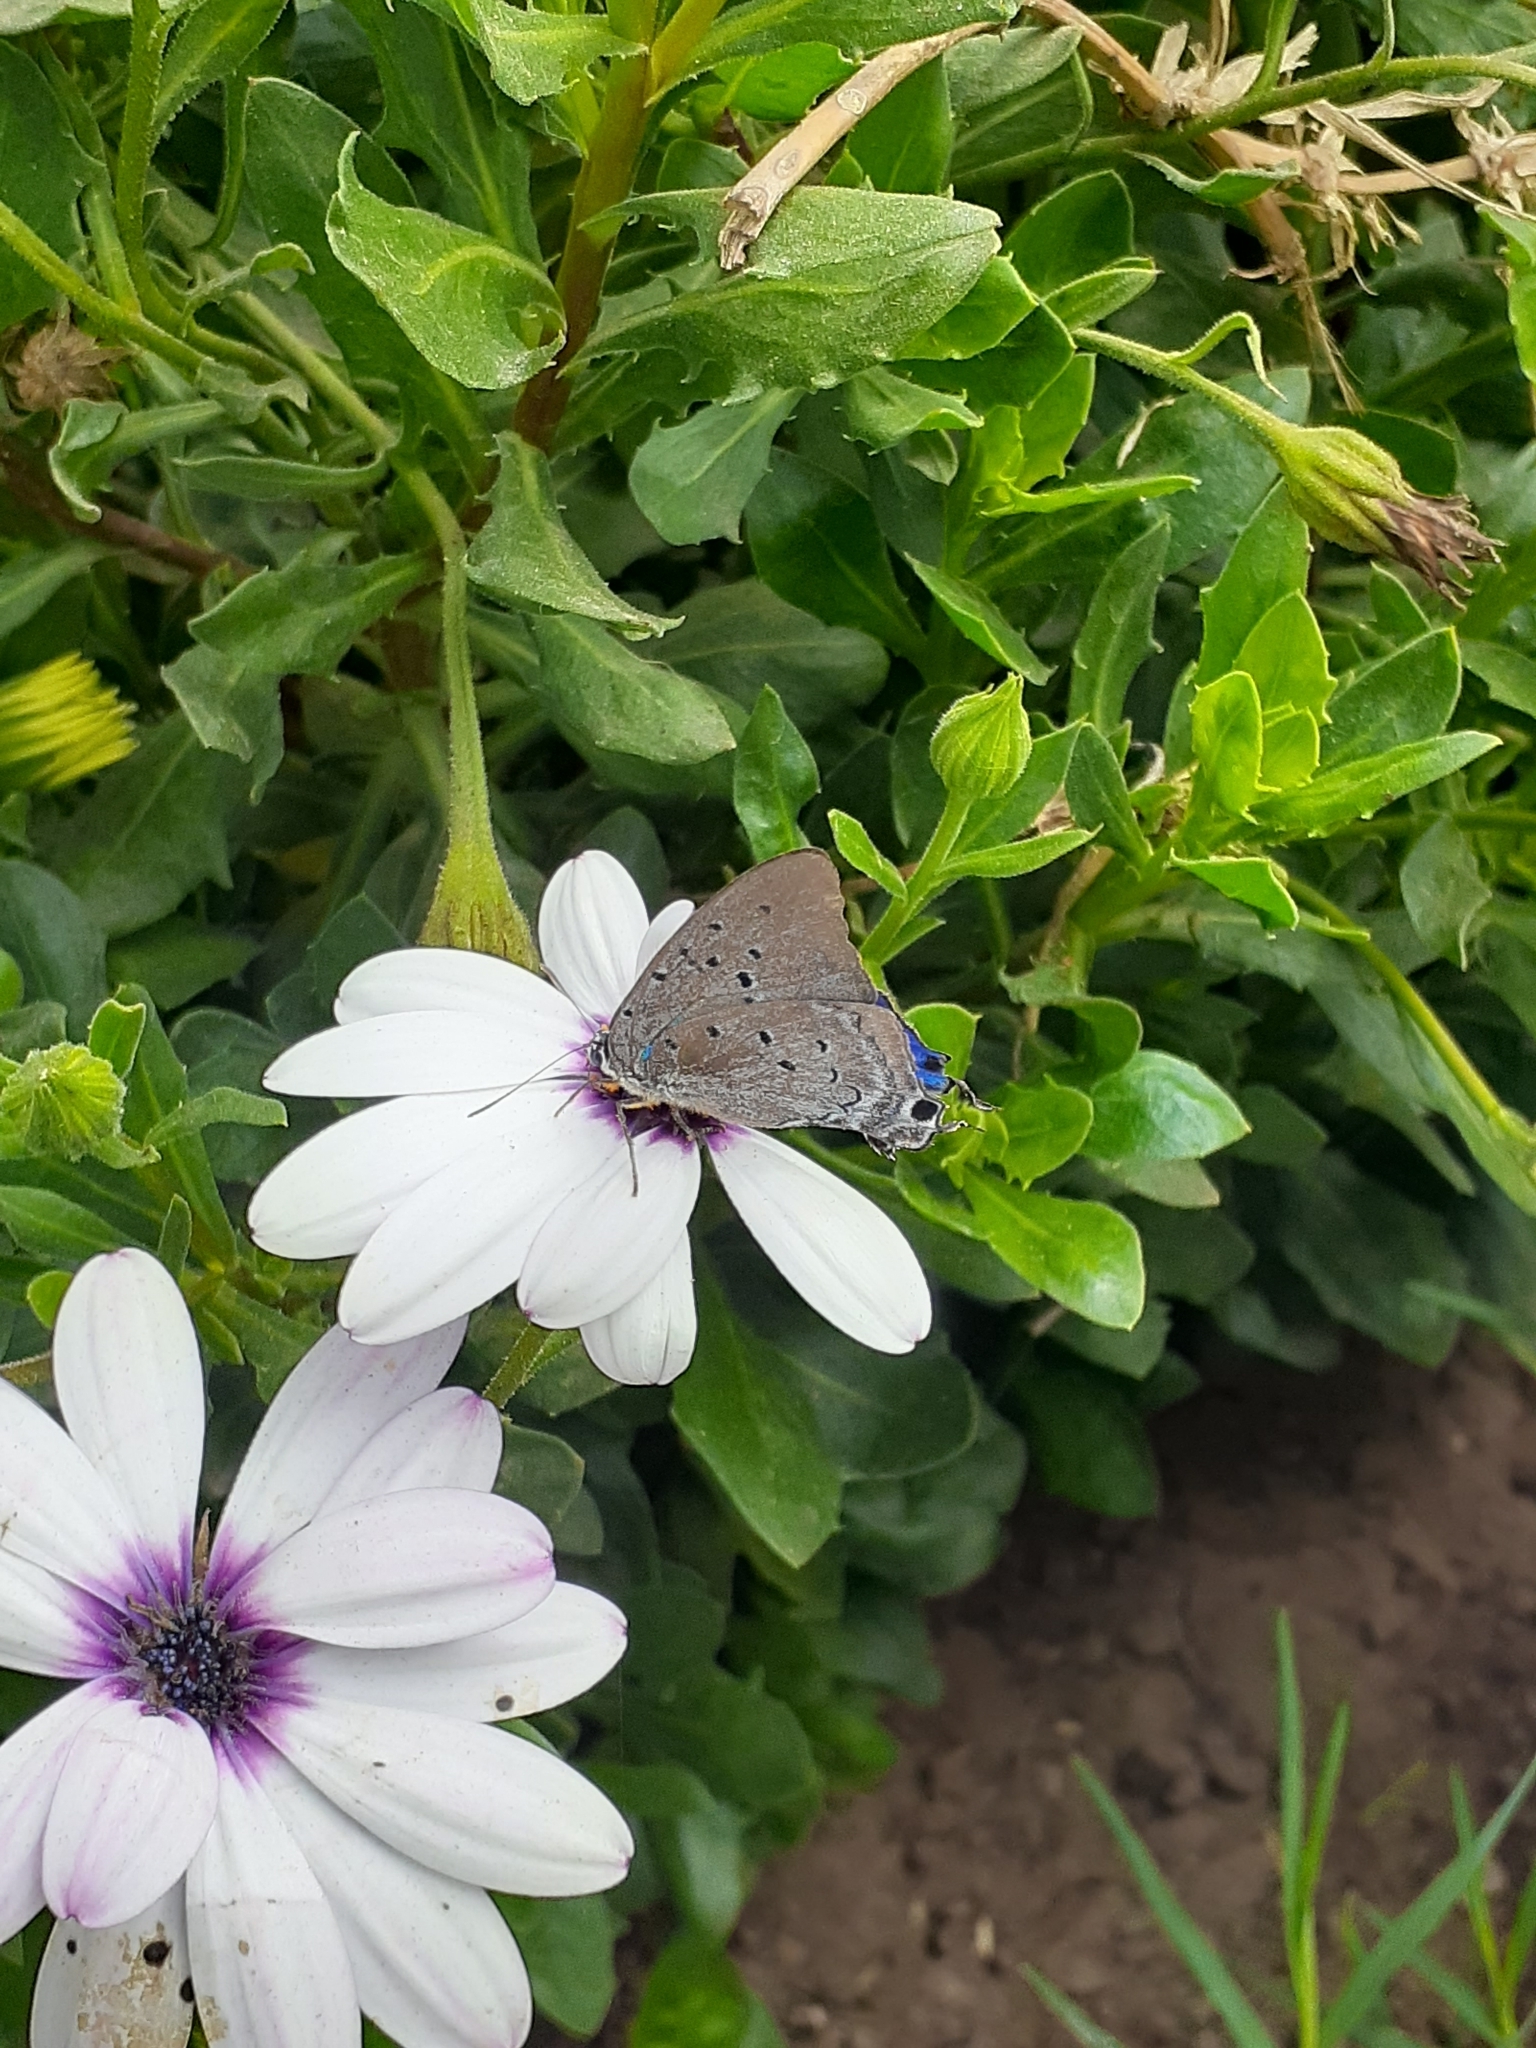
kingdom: Animalia
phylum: Arthropoda
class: Insecta
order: Lepidoptera
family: Lycaenidae
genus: Pseudolycaena
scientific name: Pseudolycaena marsyas
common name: Marsyas hairstreak
